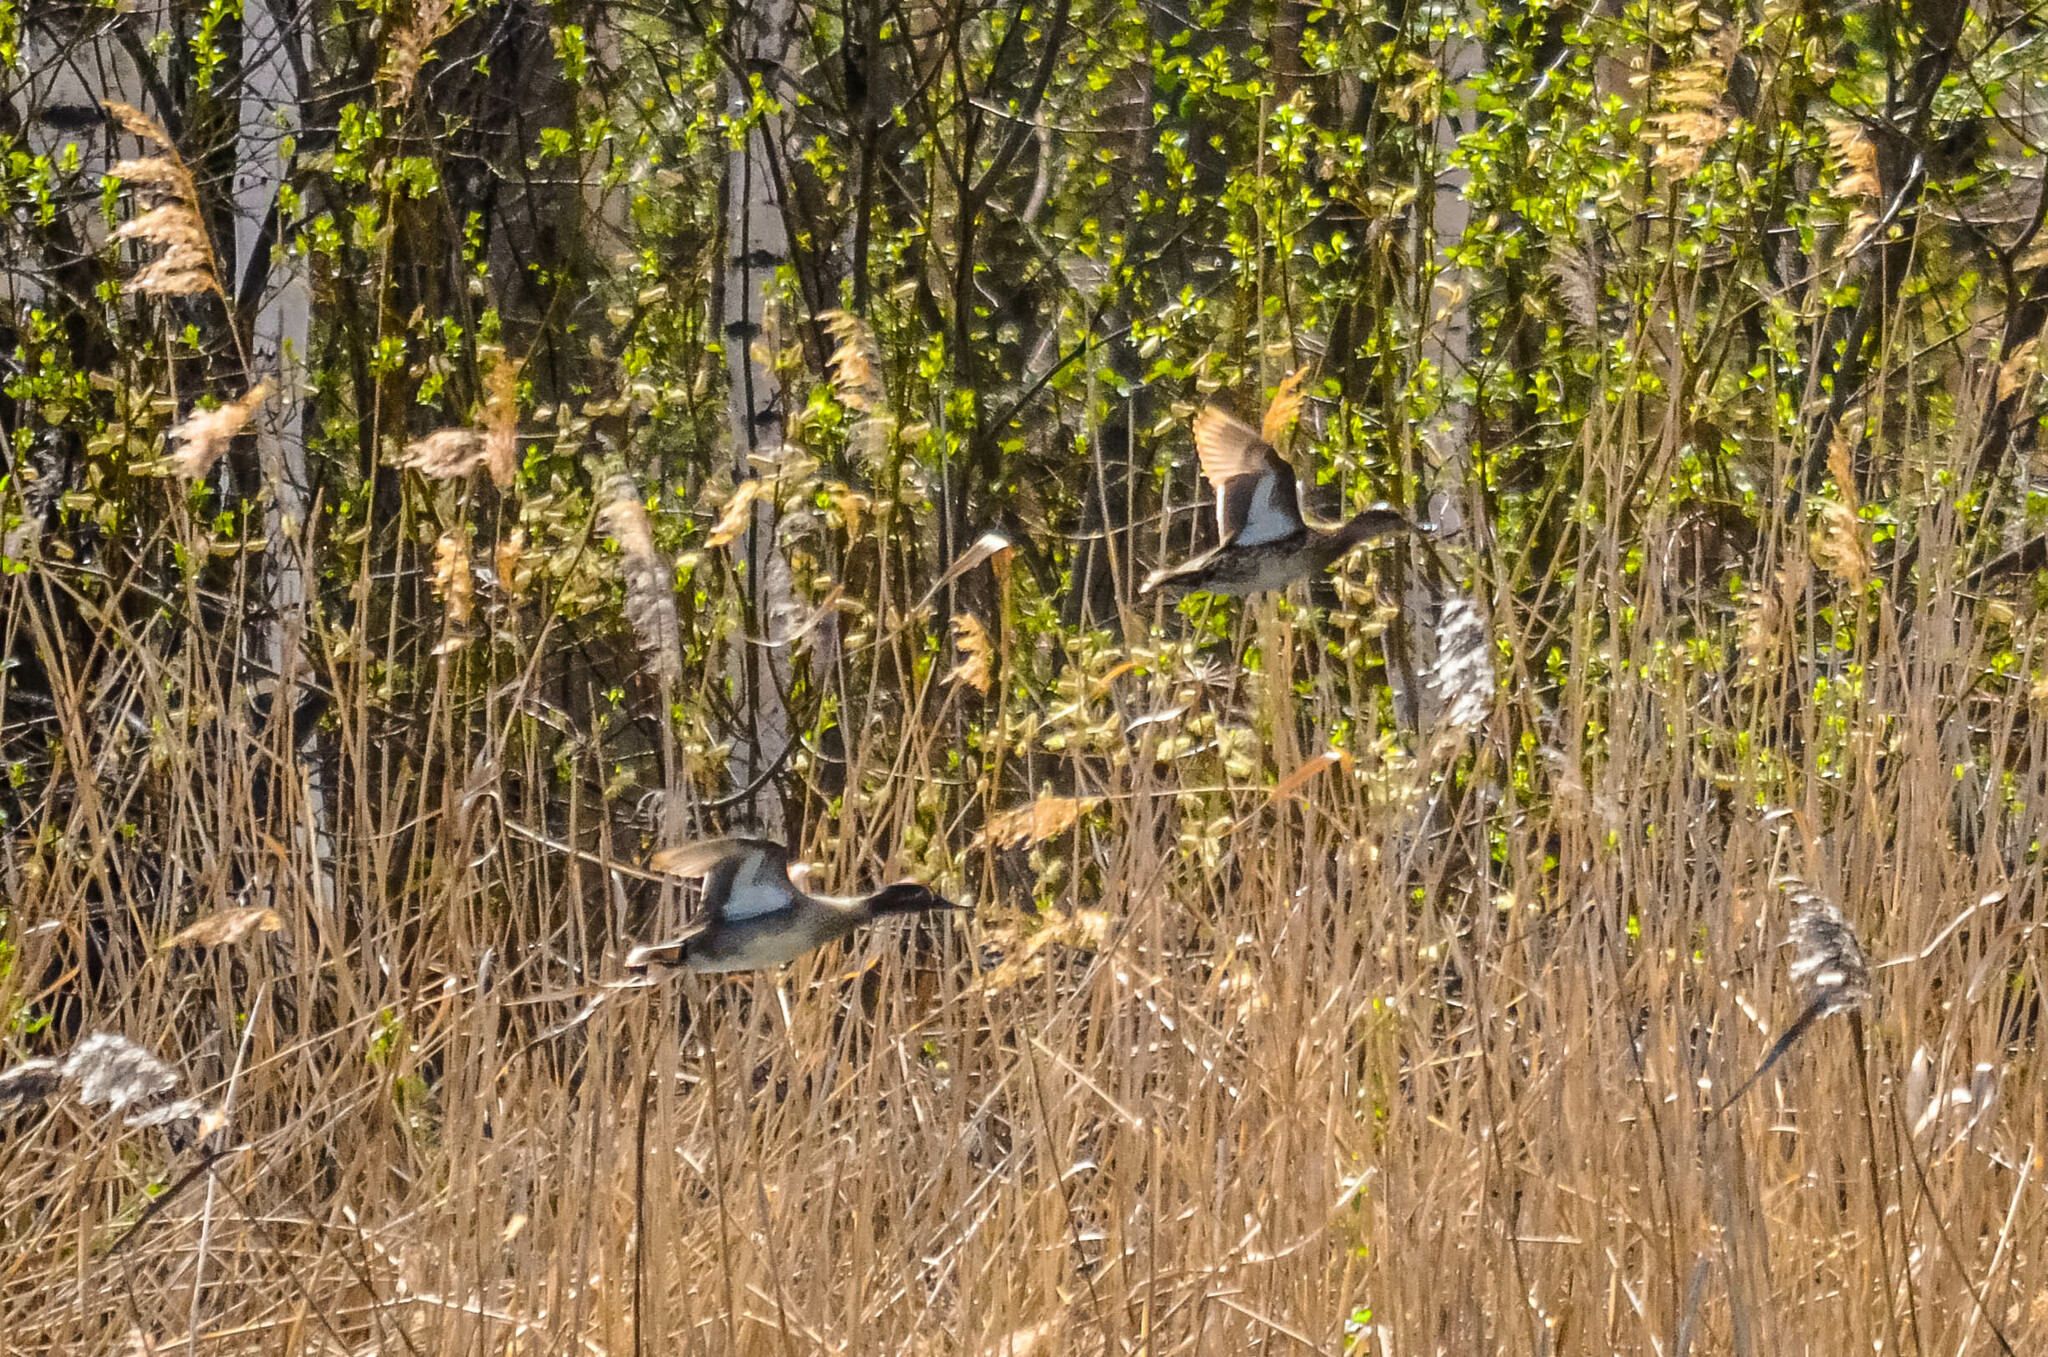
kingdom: Animalia
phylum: Chordata
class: Aves
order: Anseriformes
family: Anatidae
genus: Anas
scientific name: Anas crecca
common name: Eurasian teal
